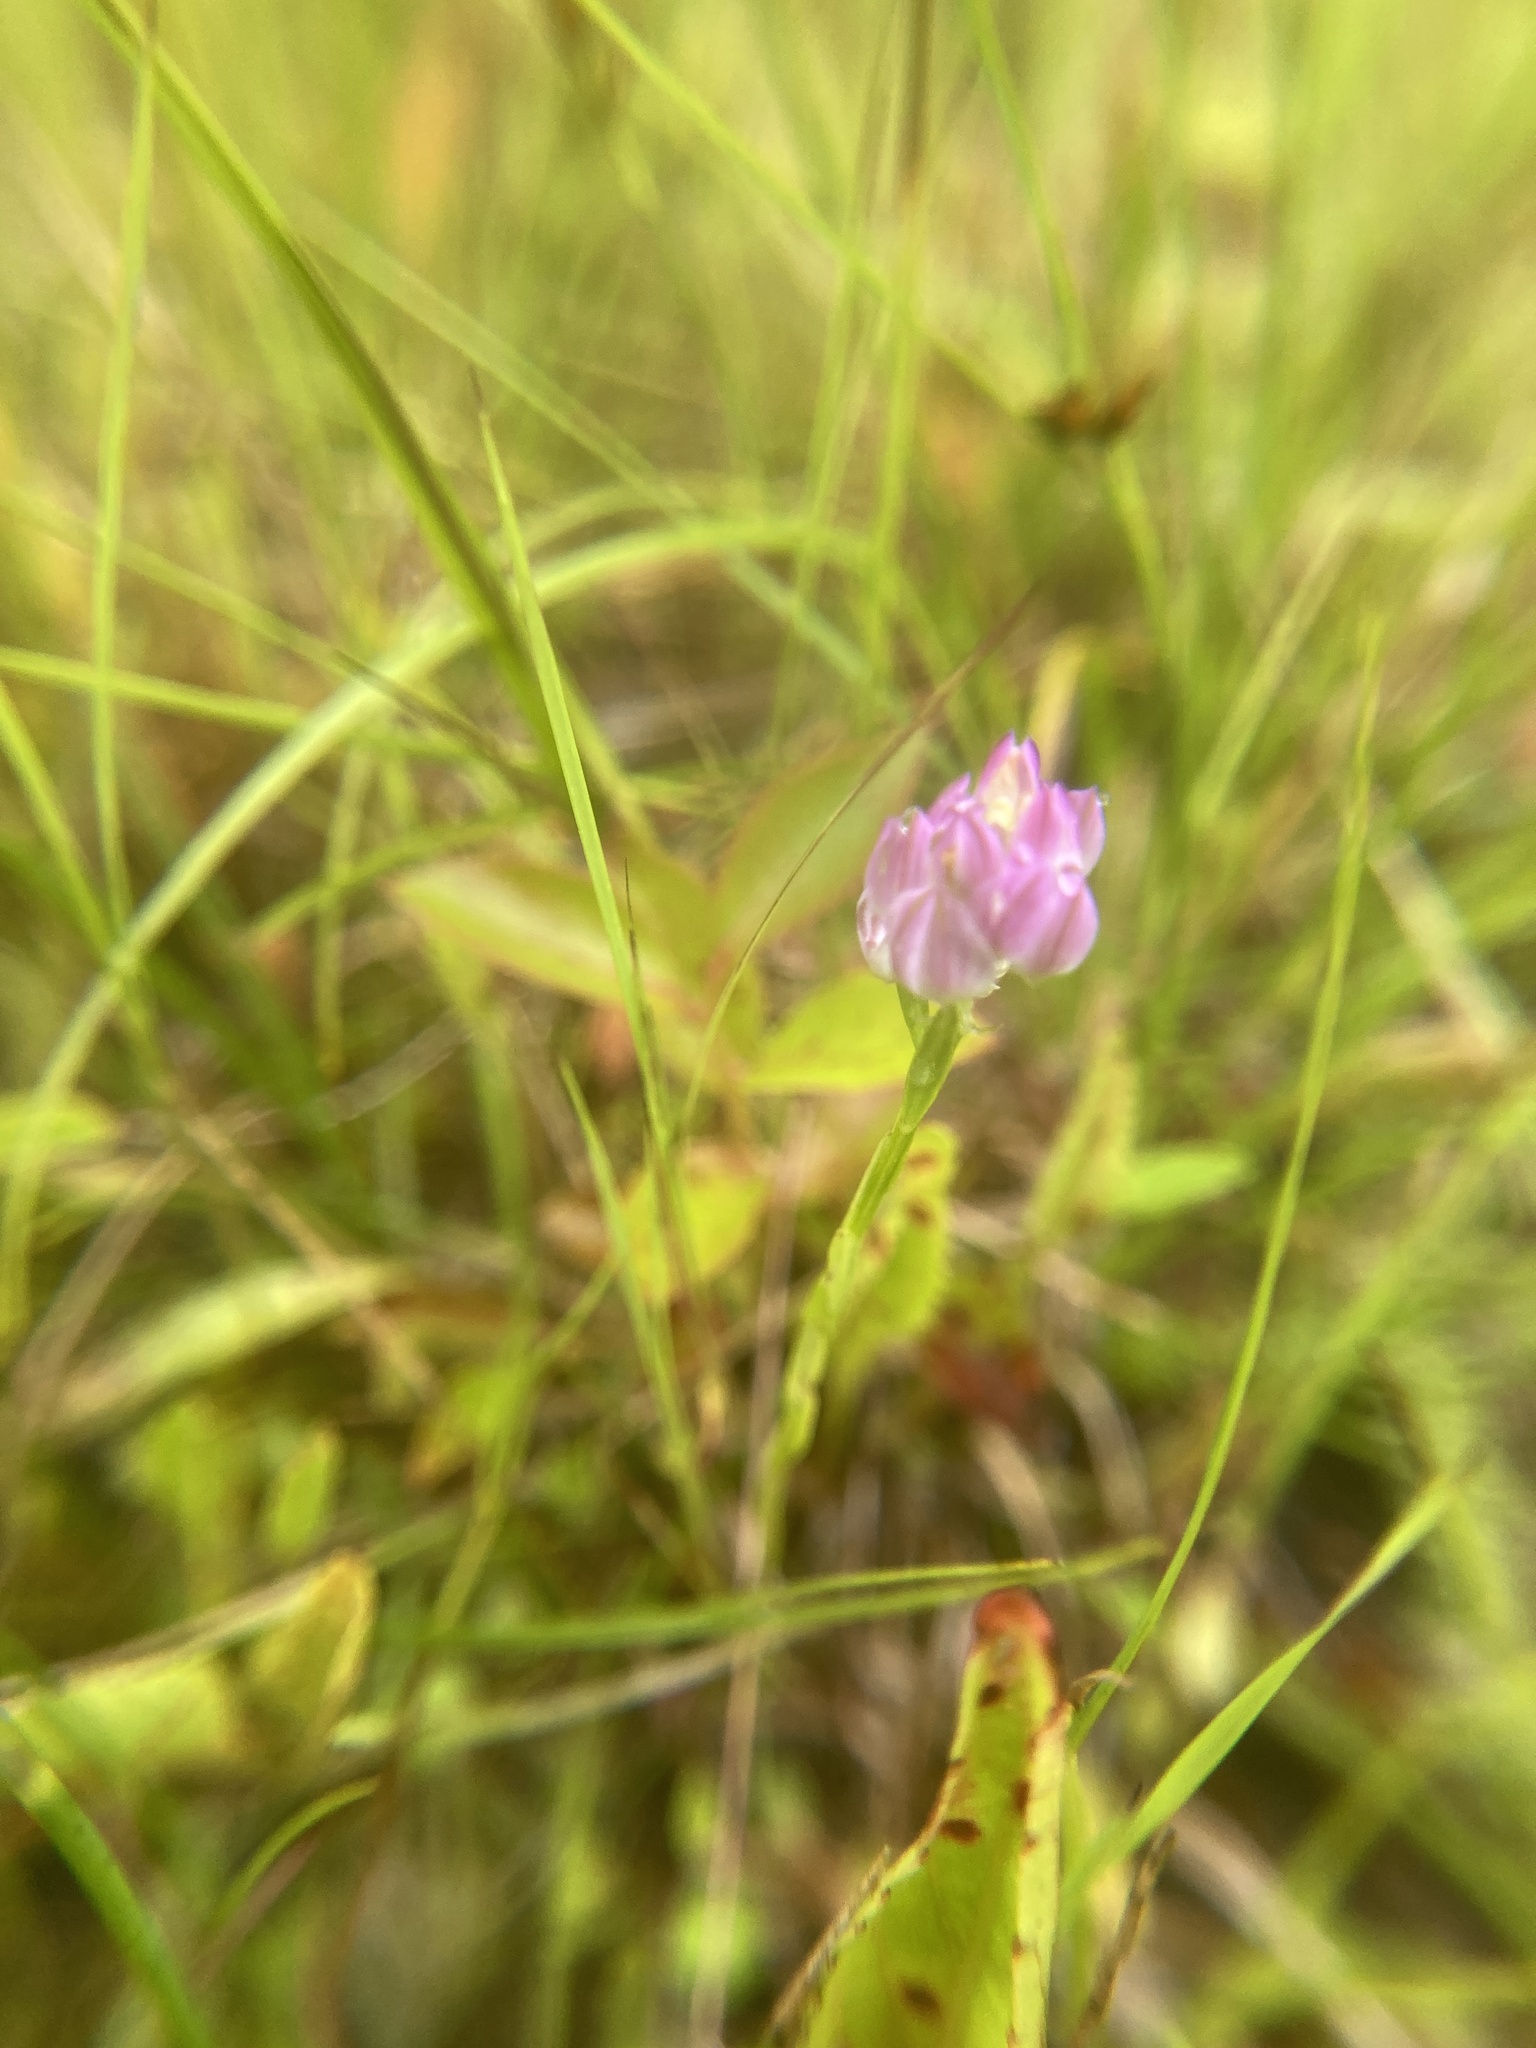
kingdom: Plantae
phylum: Tracheophyta
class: Magnoliopsida
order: Fabales
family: Polygalaceae
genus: Polygala
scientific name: Polygala sanguinea
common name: Blood milkwort
